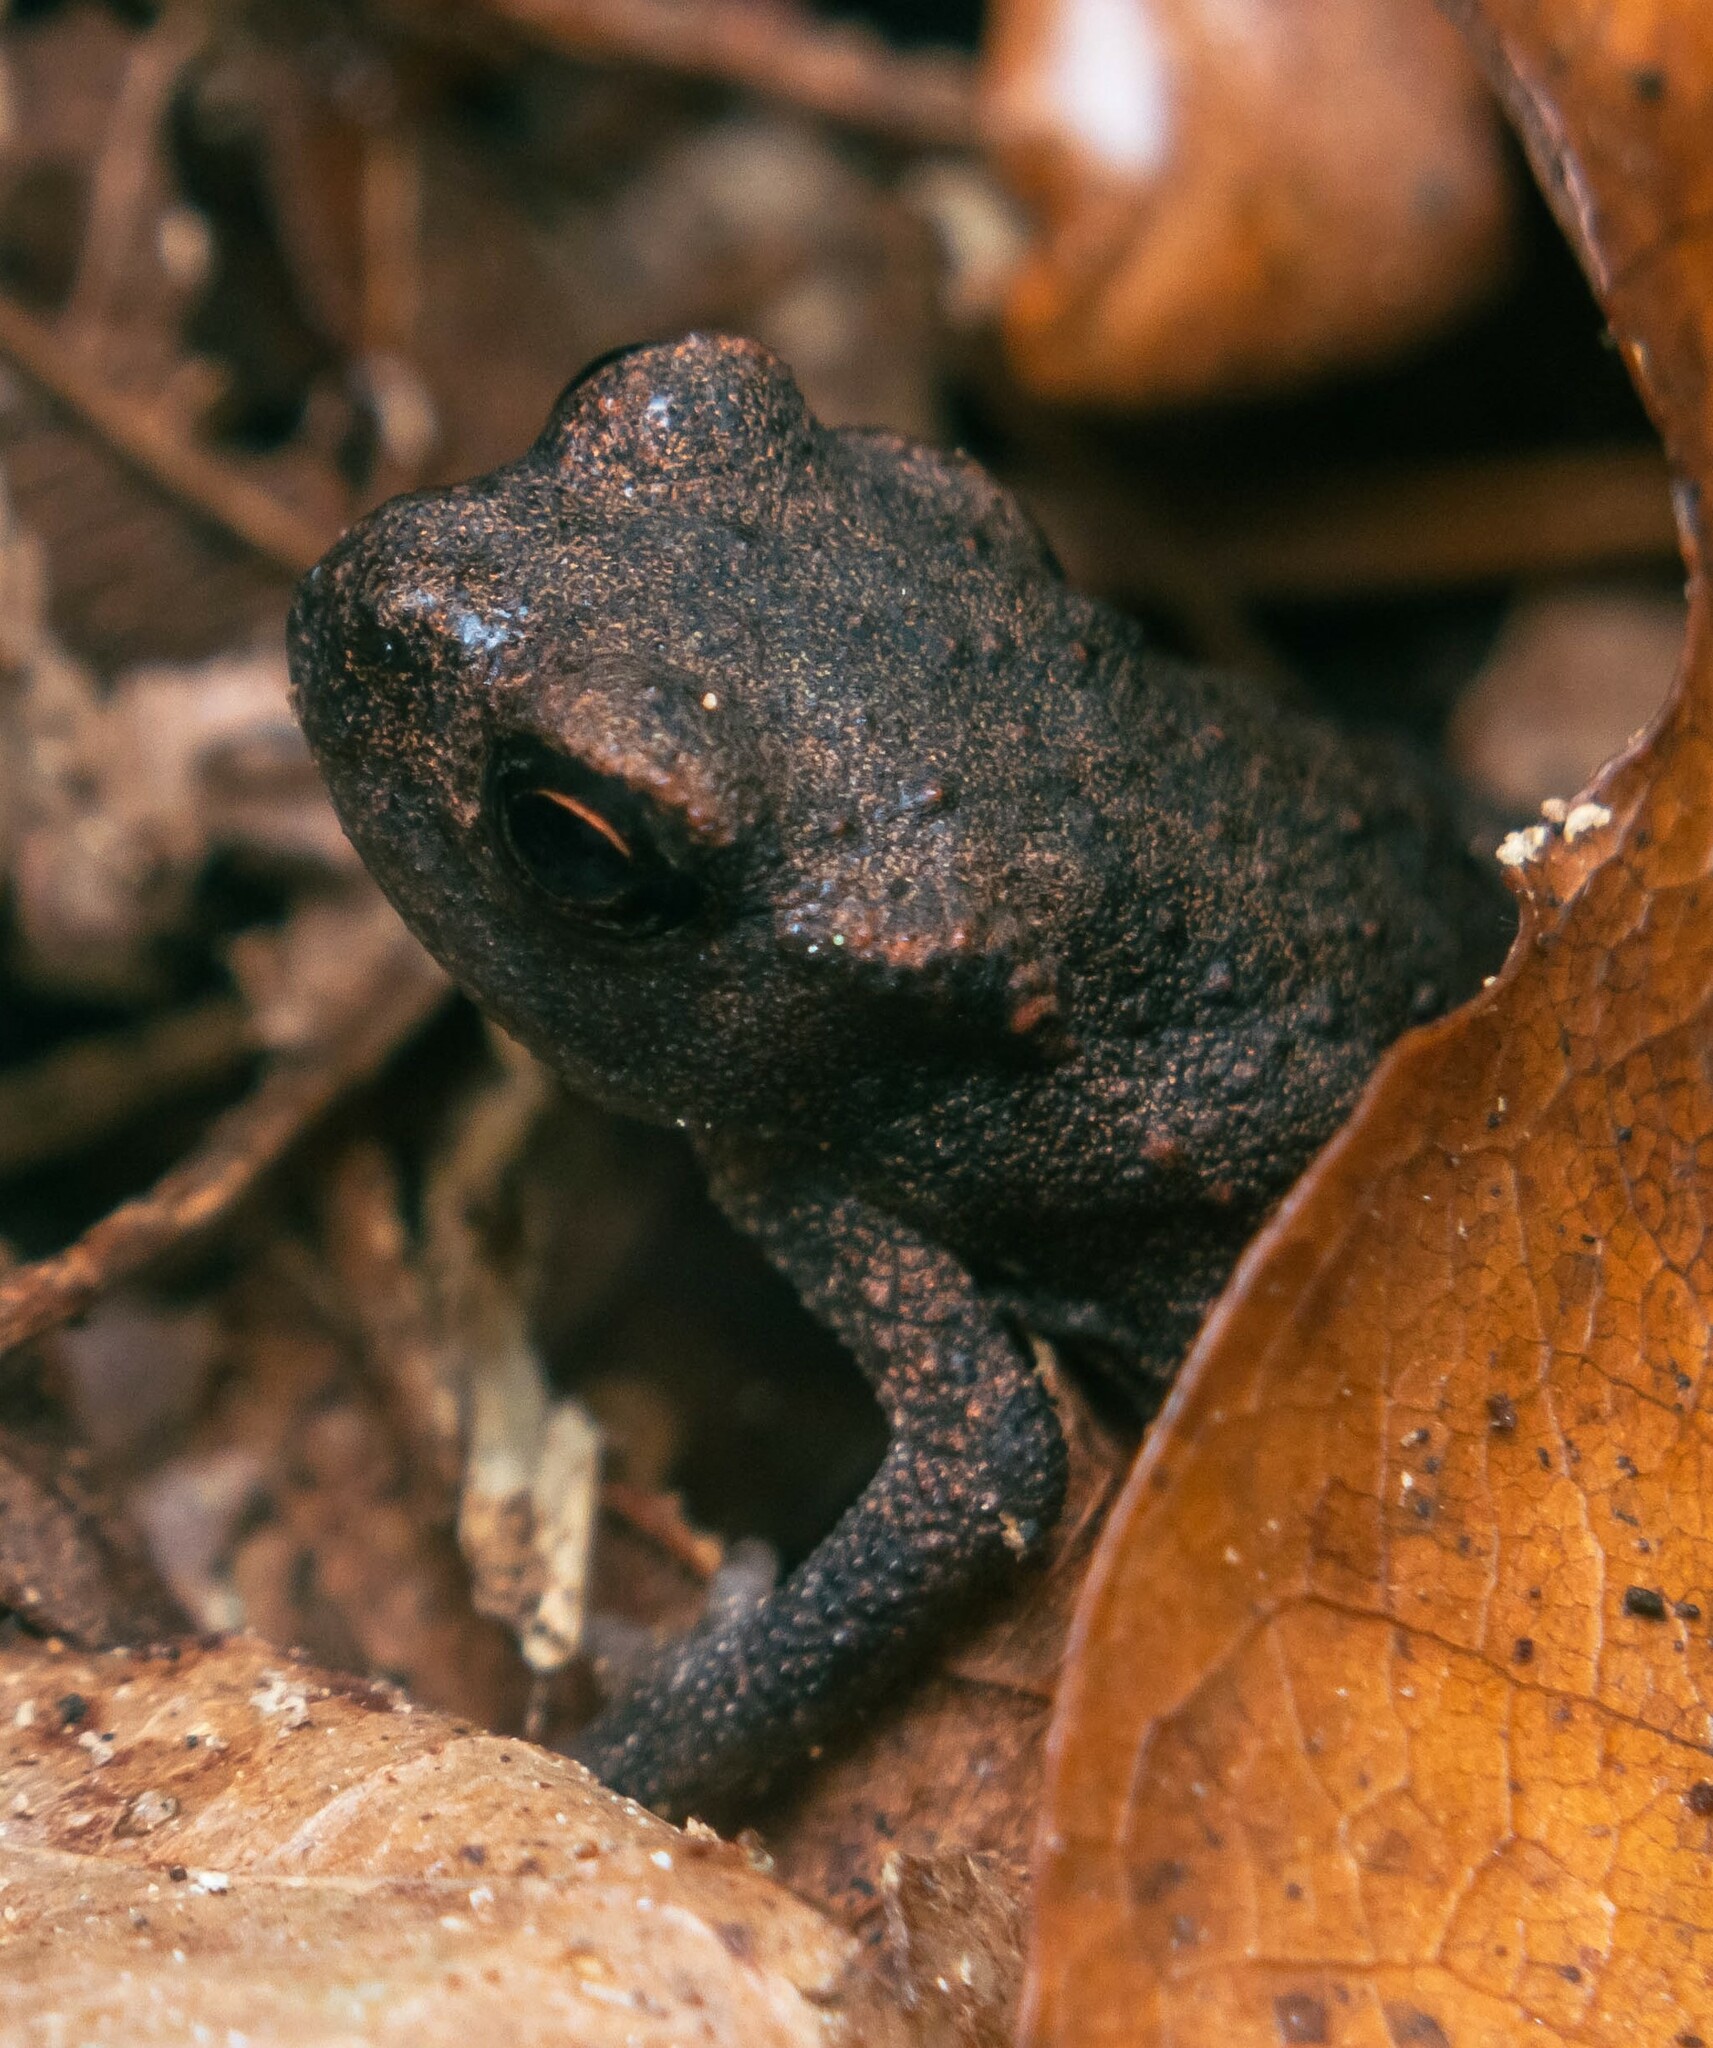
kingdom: Animalia
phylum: Chordata
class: Amphibia
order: Anura
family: Bufonidae
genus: Bufo
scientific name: Bufo bufo
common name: Common toad
